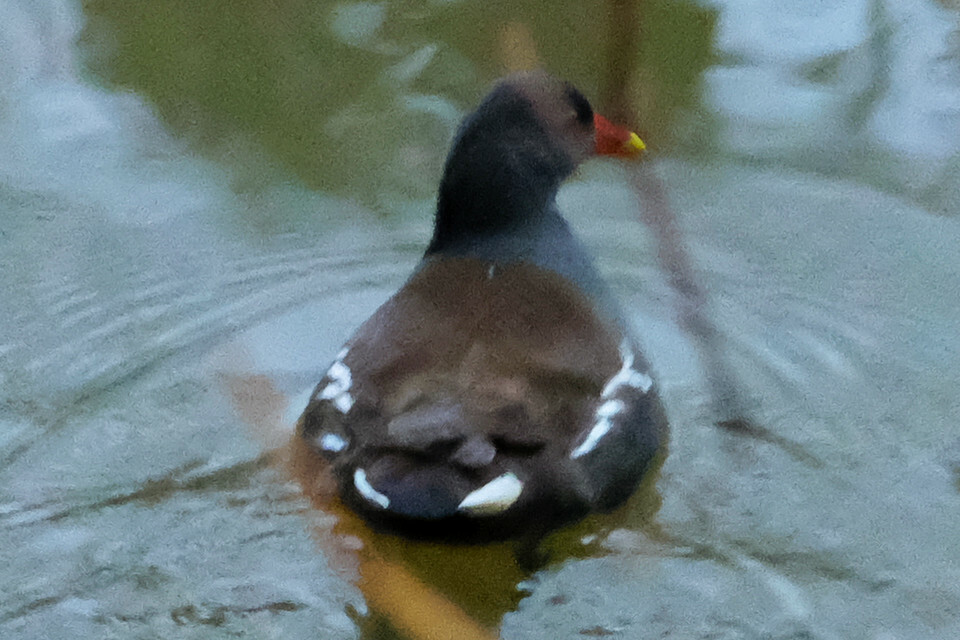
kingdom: Animalia
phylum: Chordata
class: Aves
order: Gruiformes
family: Rallidae
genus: Gallinula
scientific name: Gallinula chloropus
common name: Common moorhen
